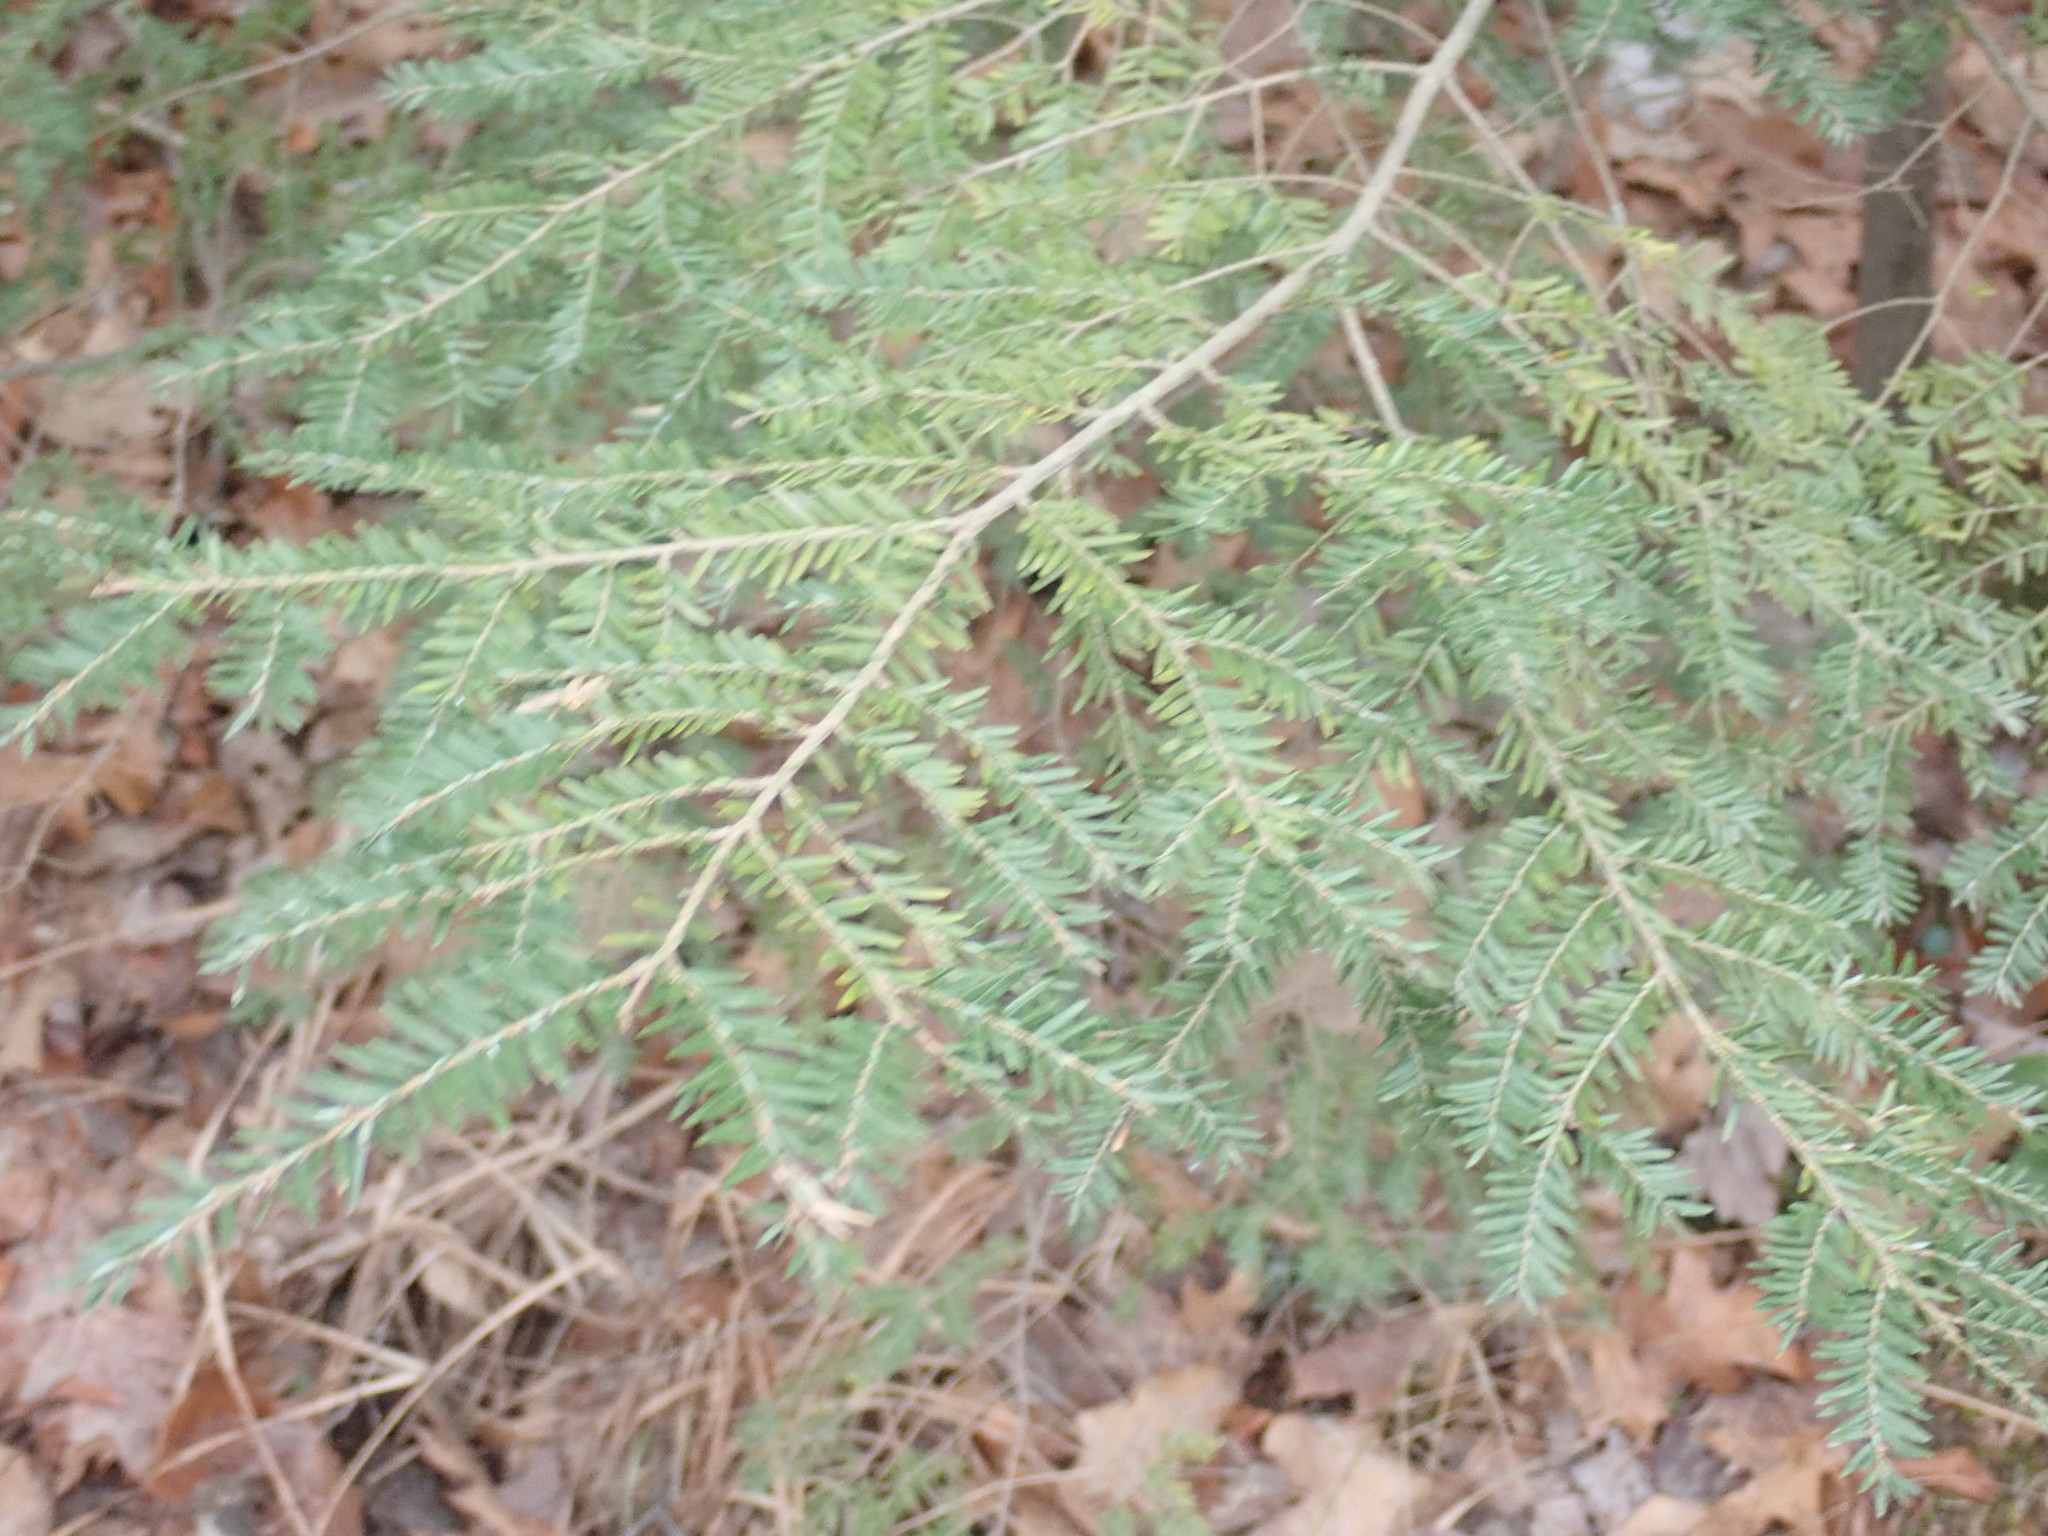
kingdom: Plantae
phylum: Tracheophyta
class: Pinopsida
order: Pinales
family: Pinaceae
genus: Tsuga
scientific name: Tsuga canadensis
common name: Eastern hemlock
